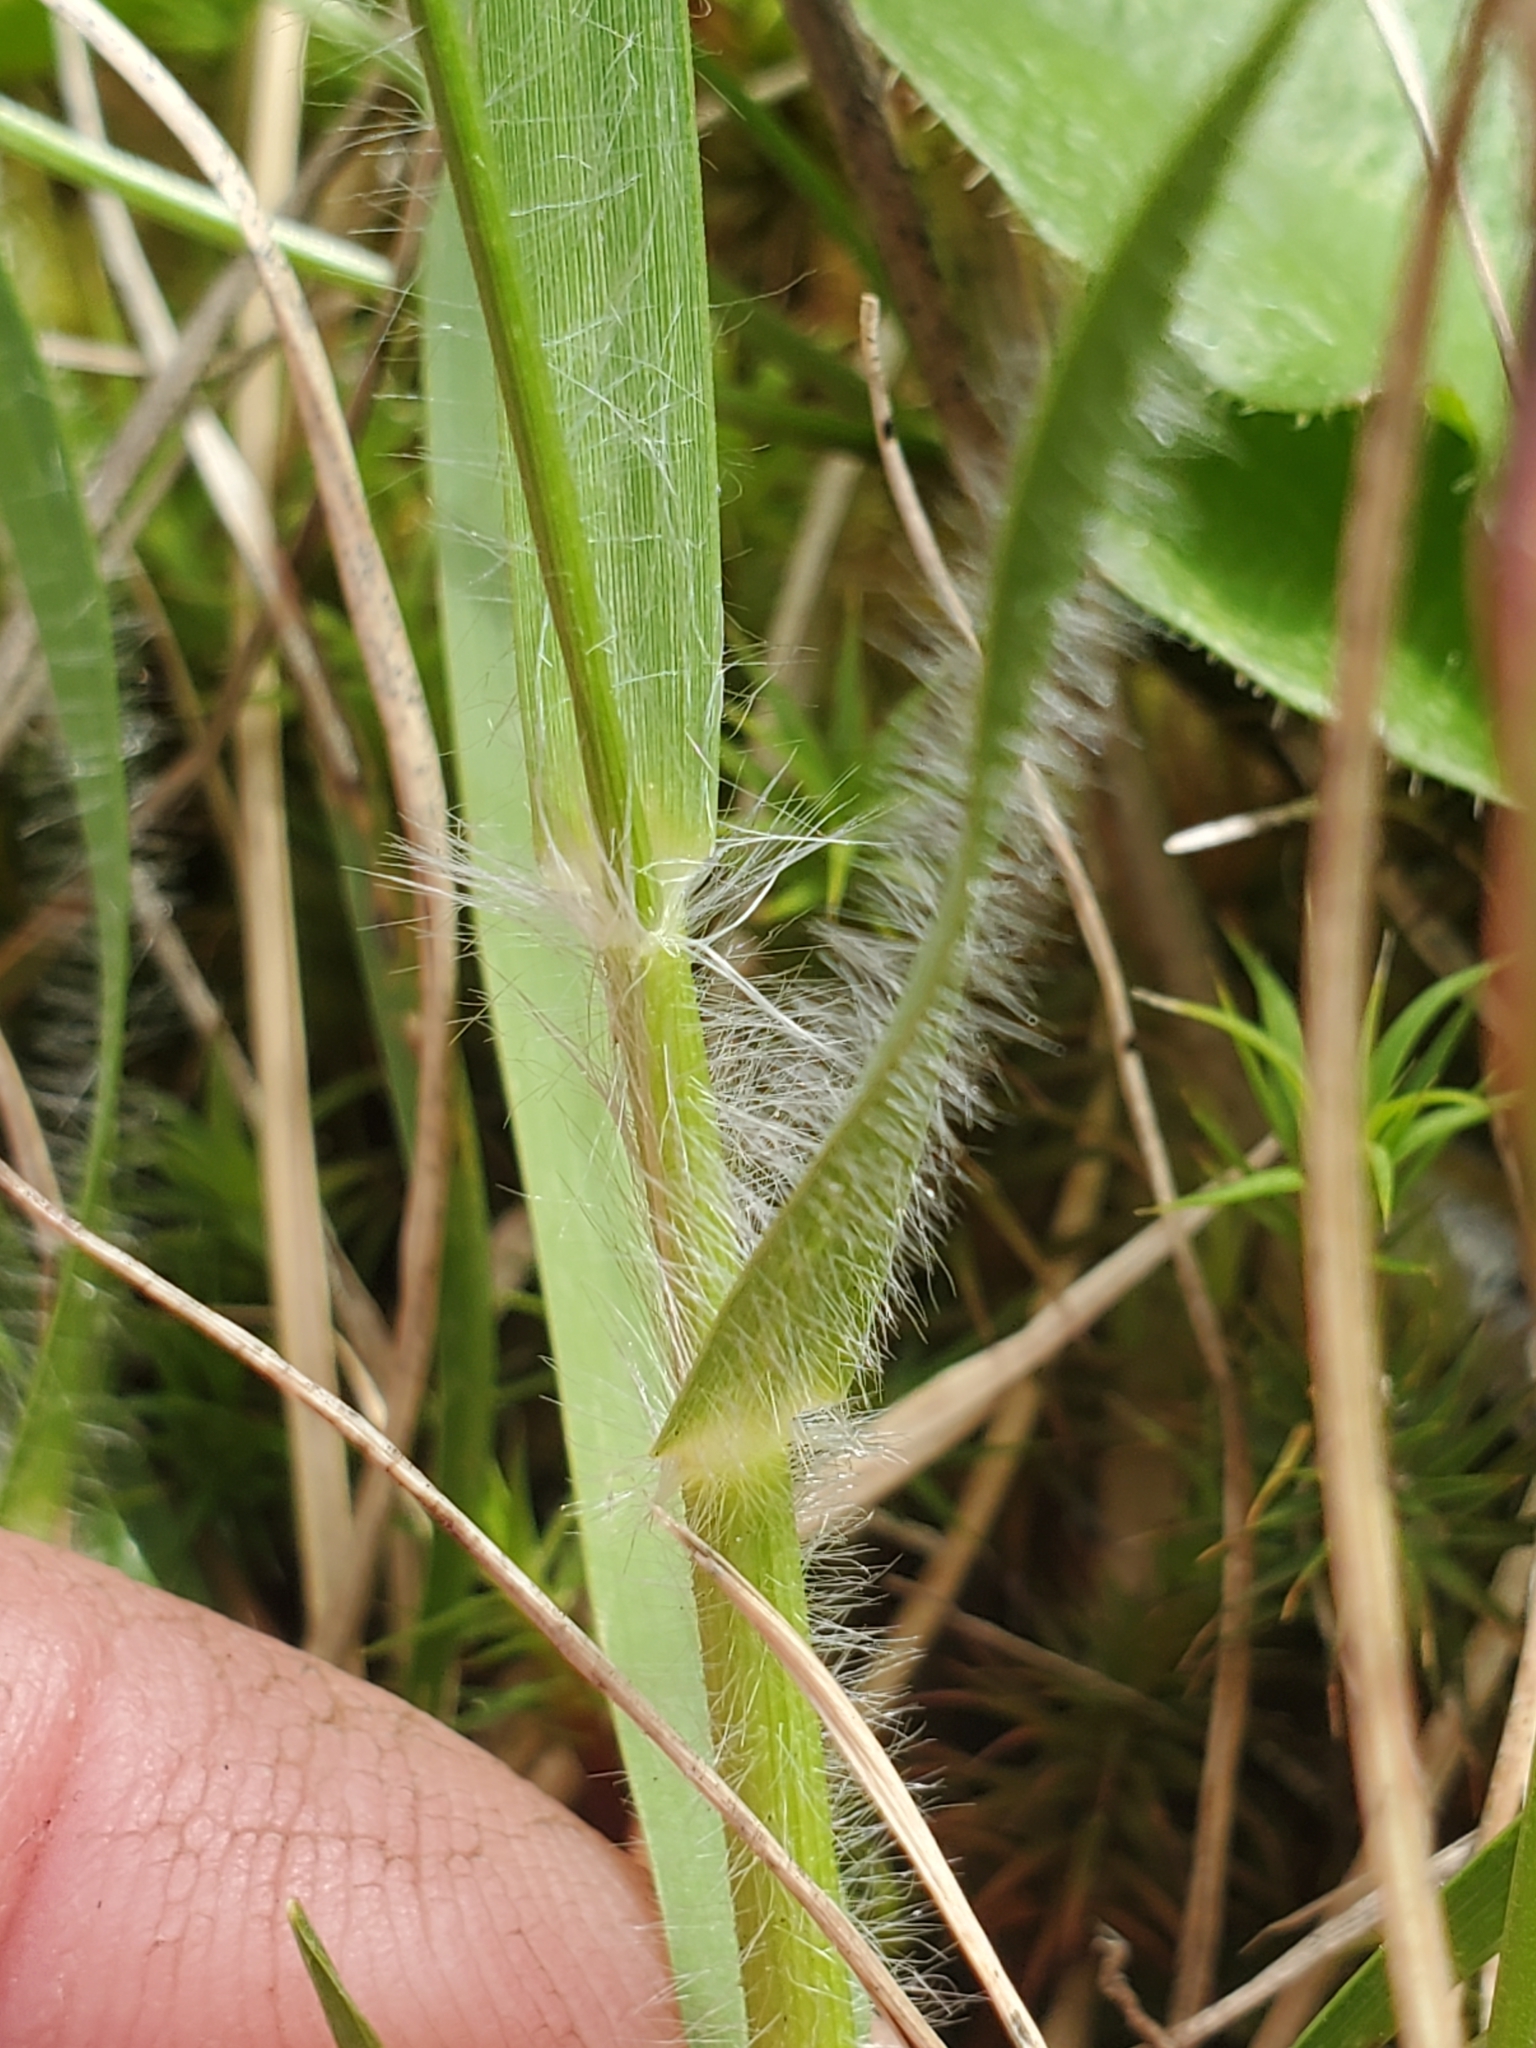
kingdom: Plantae
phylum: Tracheophyta
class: Liliopsida
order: Poales
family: Poaceae
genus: Danthonia
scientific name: Danthonia californica
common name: California oat grass
